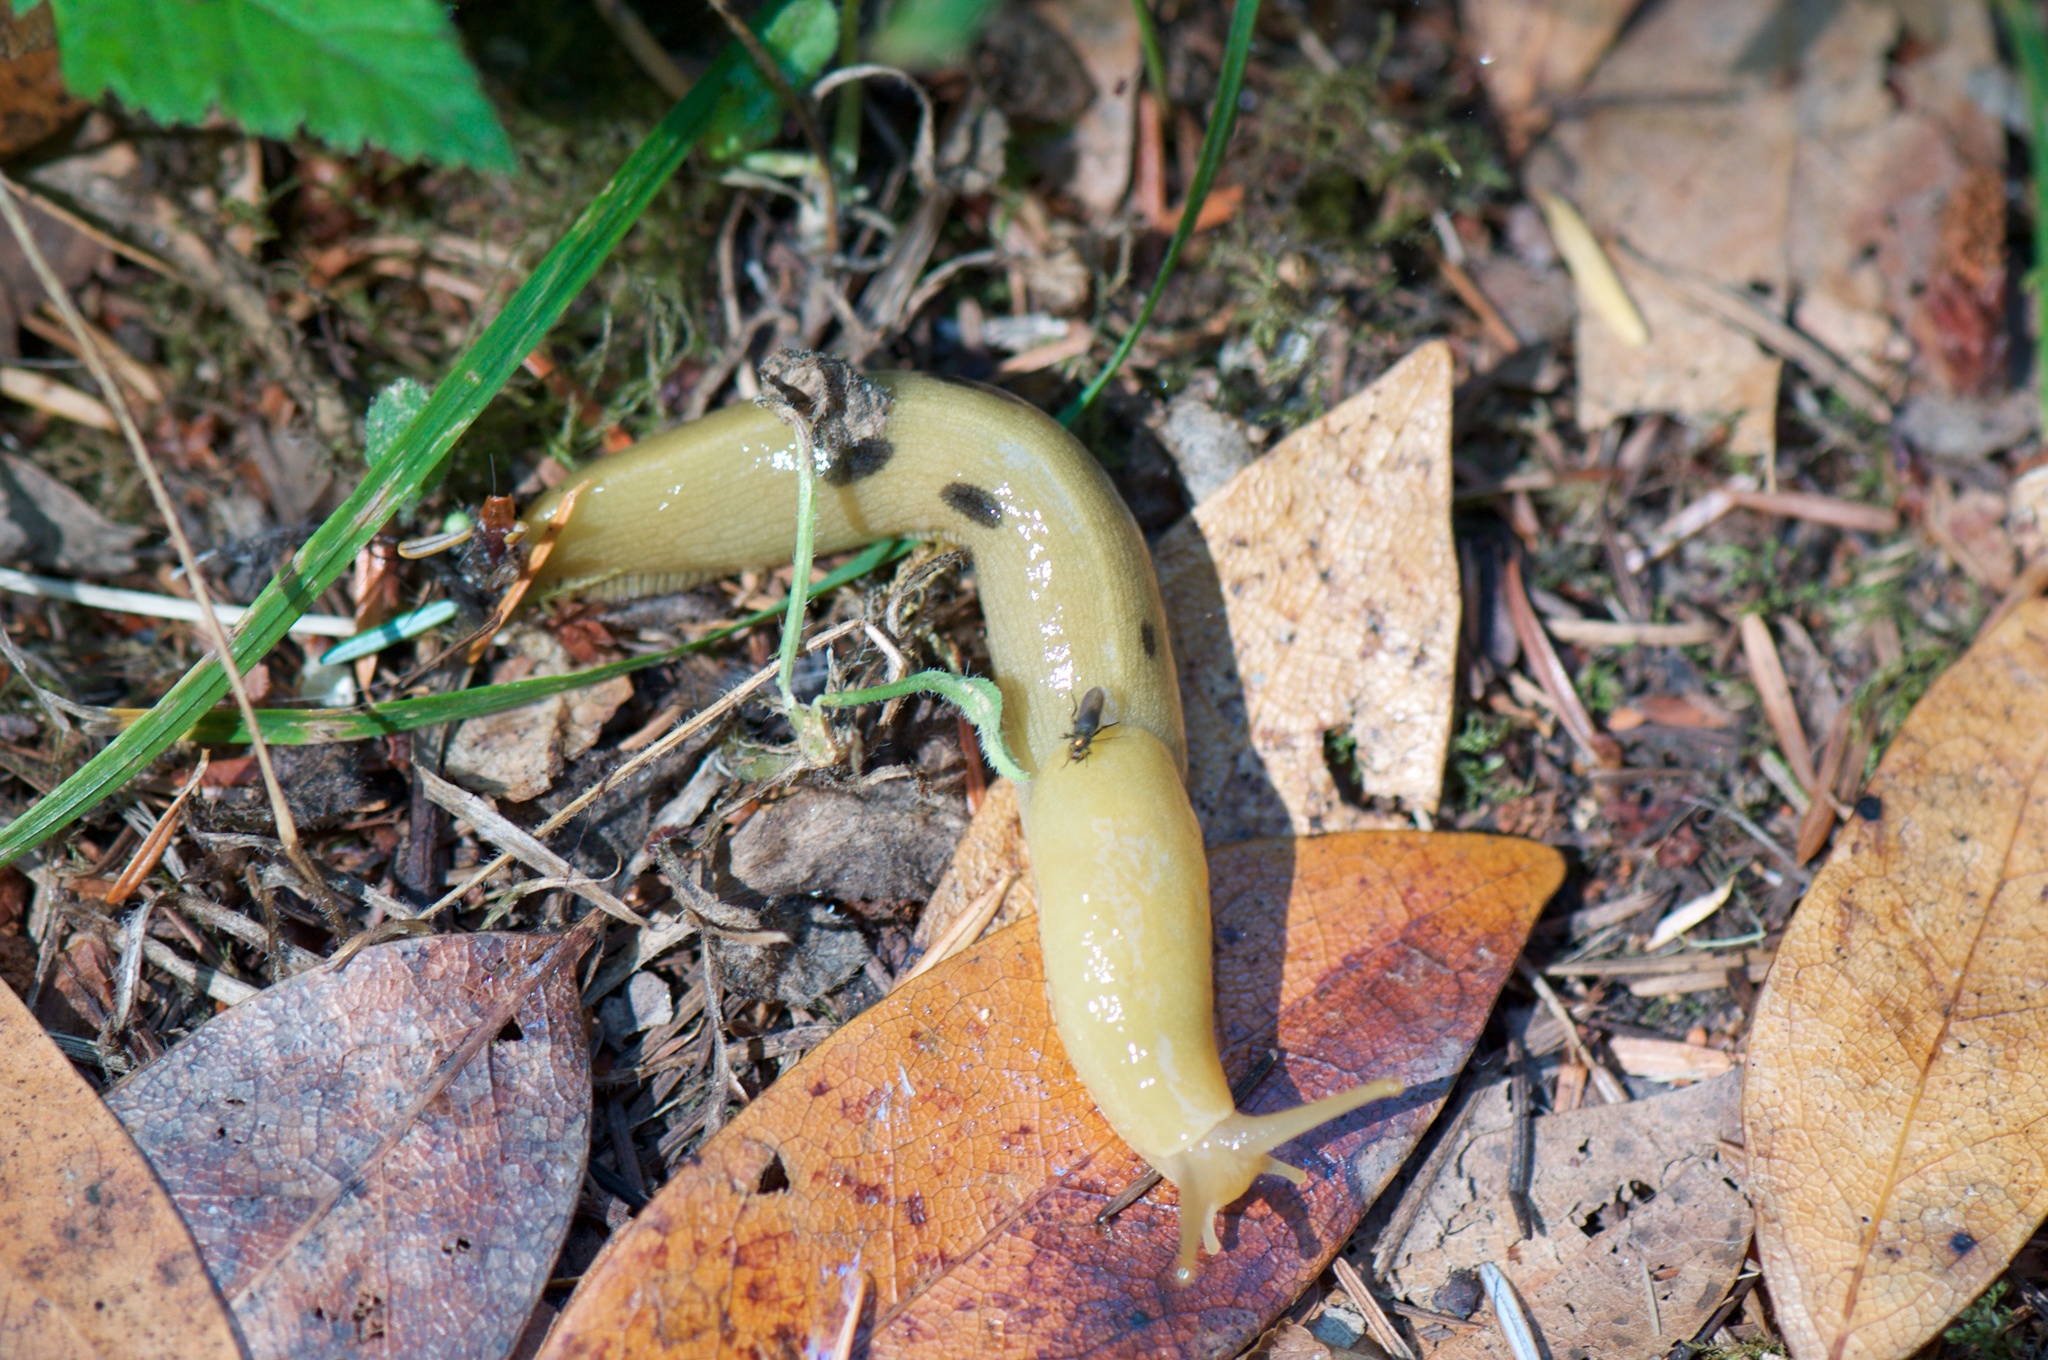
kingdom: Animalia
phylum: Mollusca
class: Gastropoda
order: Stylommatophora
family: Ariolimacidae
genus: Ariolimax
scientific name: Ariolimax columbianus
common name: Pacific banana slug
